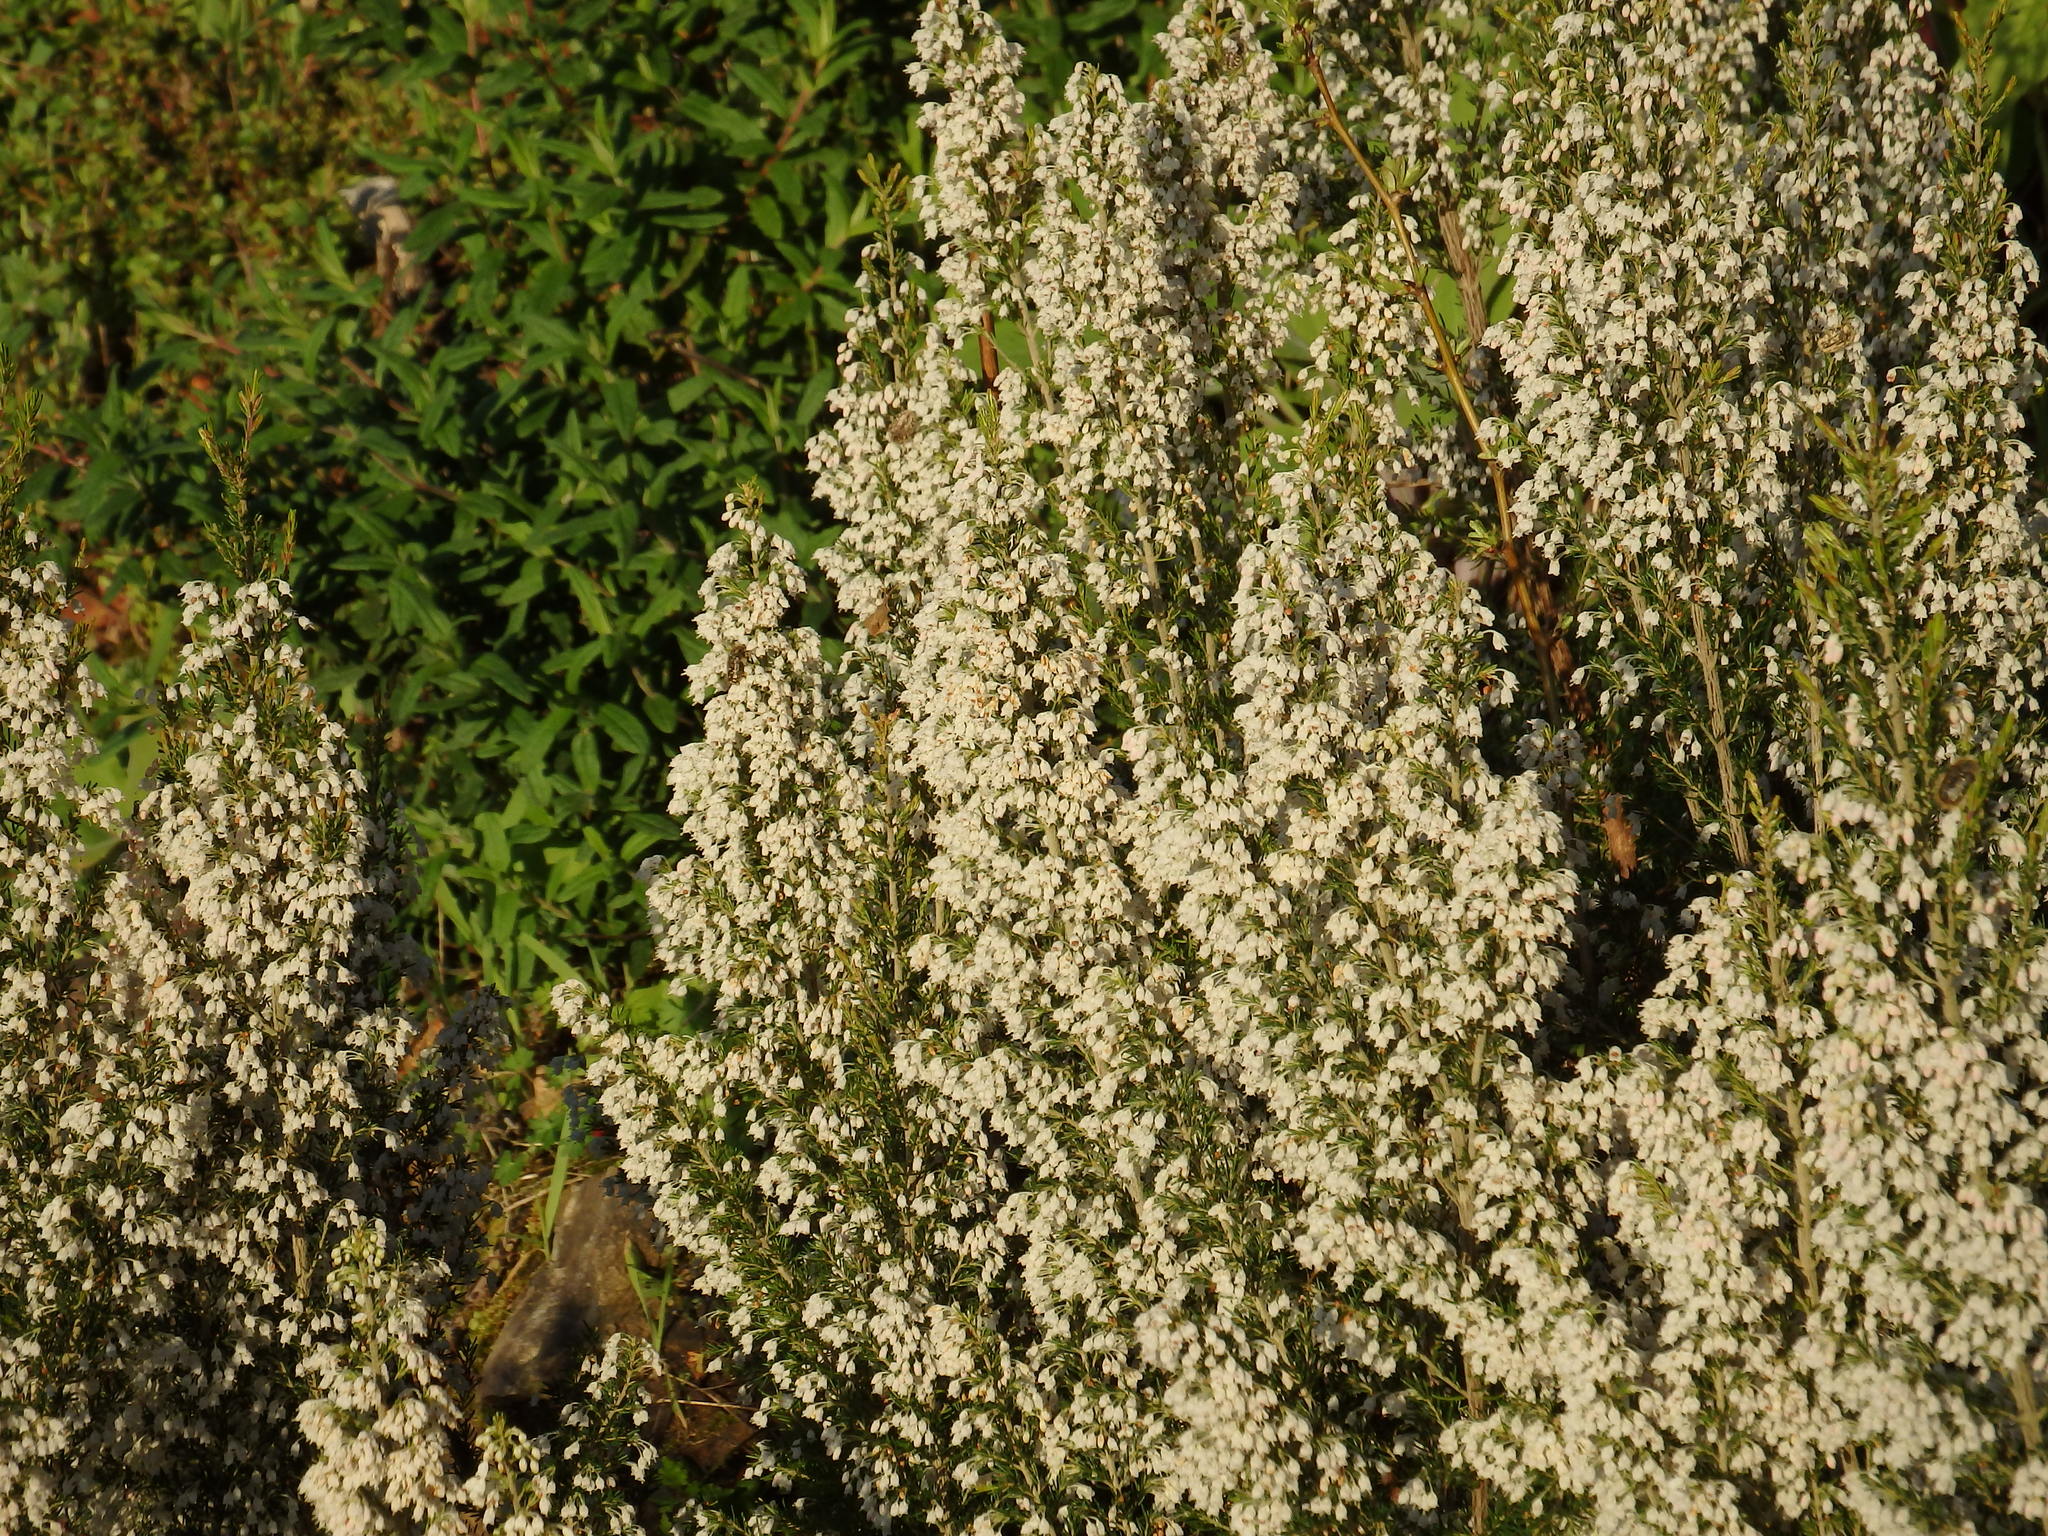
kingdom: Plantae
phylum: Tracheophyta
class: Magnoliopsida
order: Ericales
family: Ericaceae
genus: Erica
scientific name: Erica arborea
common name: Tree heath
